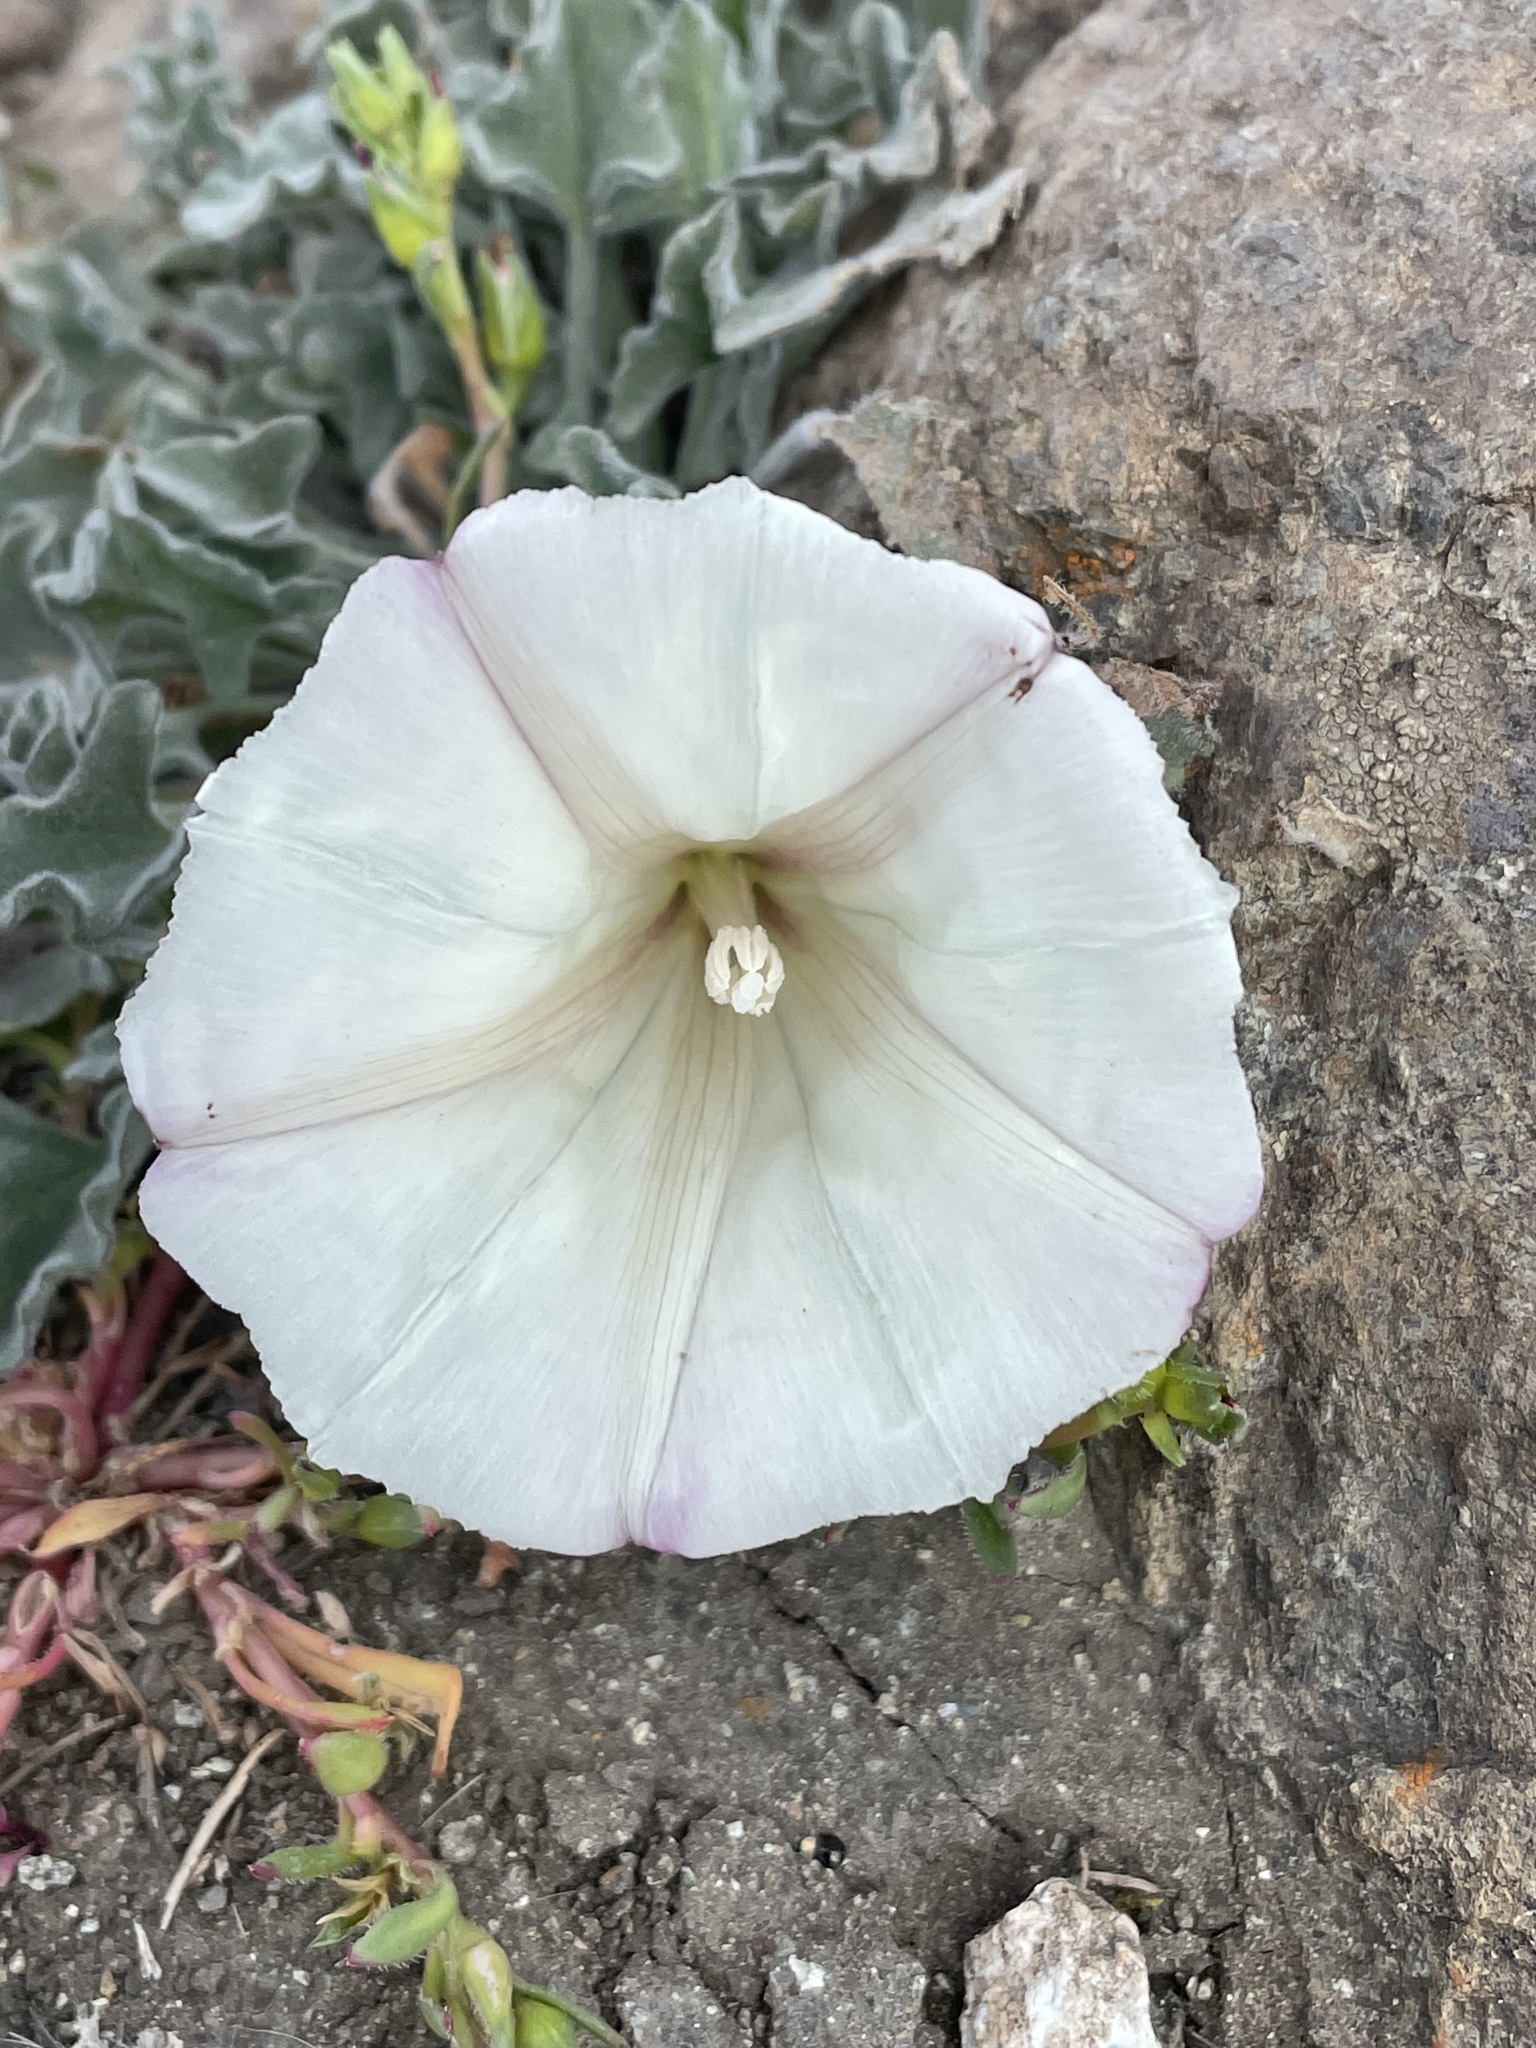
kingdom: Plantae
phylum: Tracheophyta
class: Magnoliopsida
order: Solanales
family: Convolvulaceae
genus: Calystegia
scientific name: Calystegia collina
